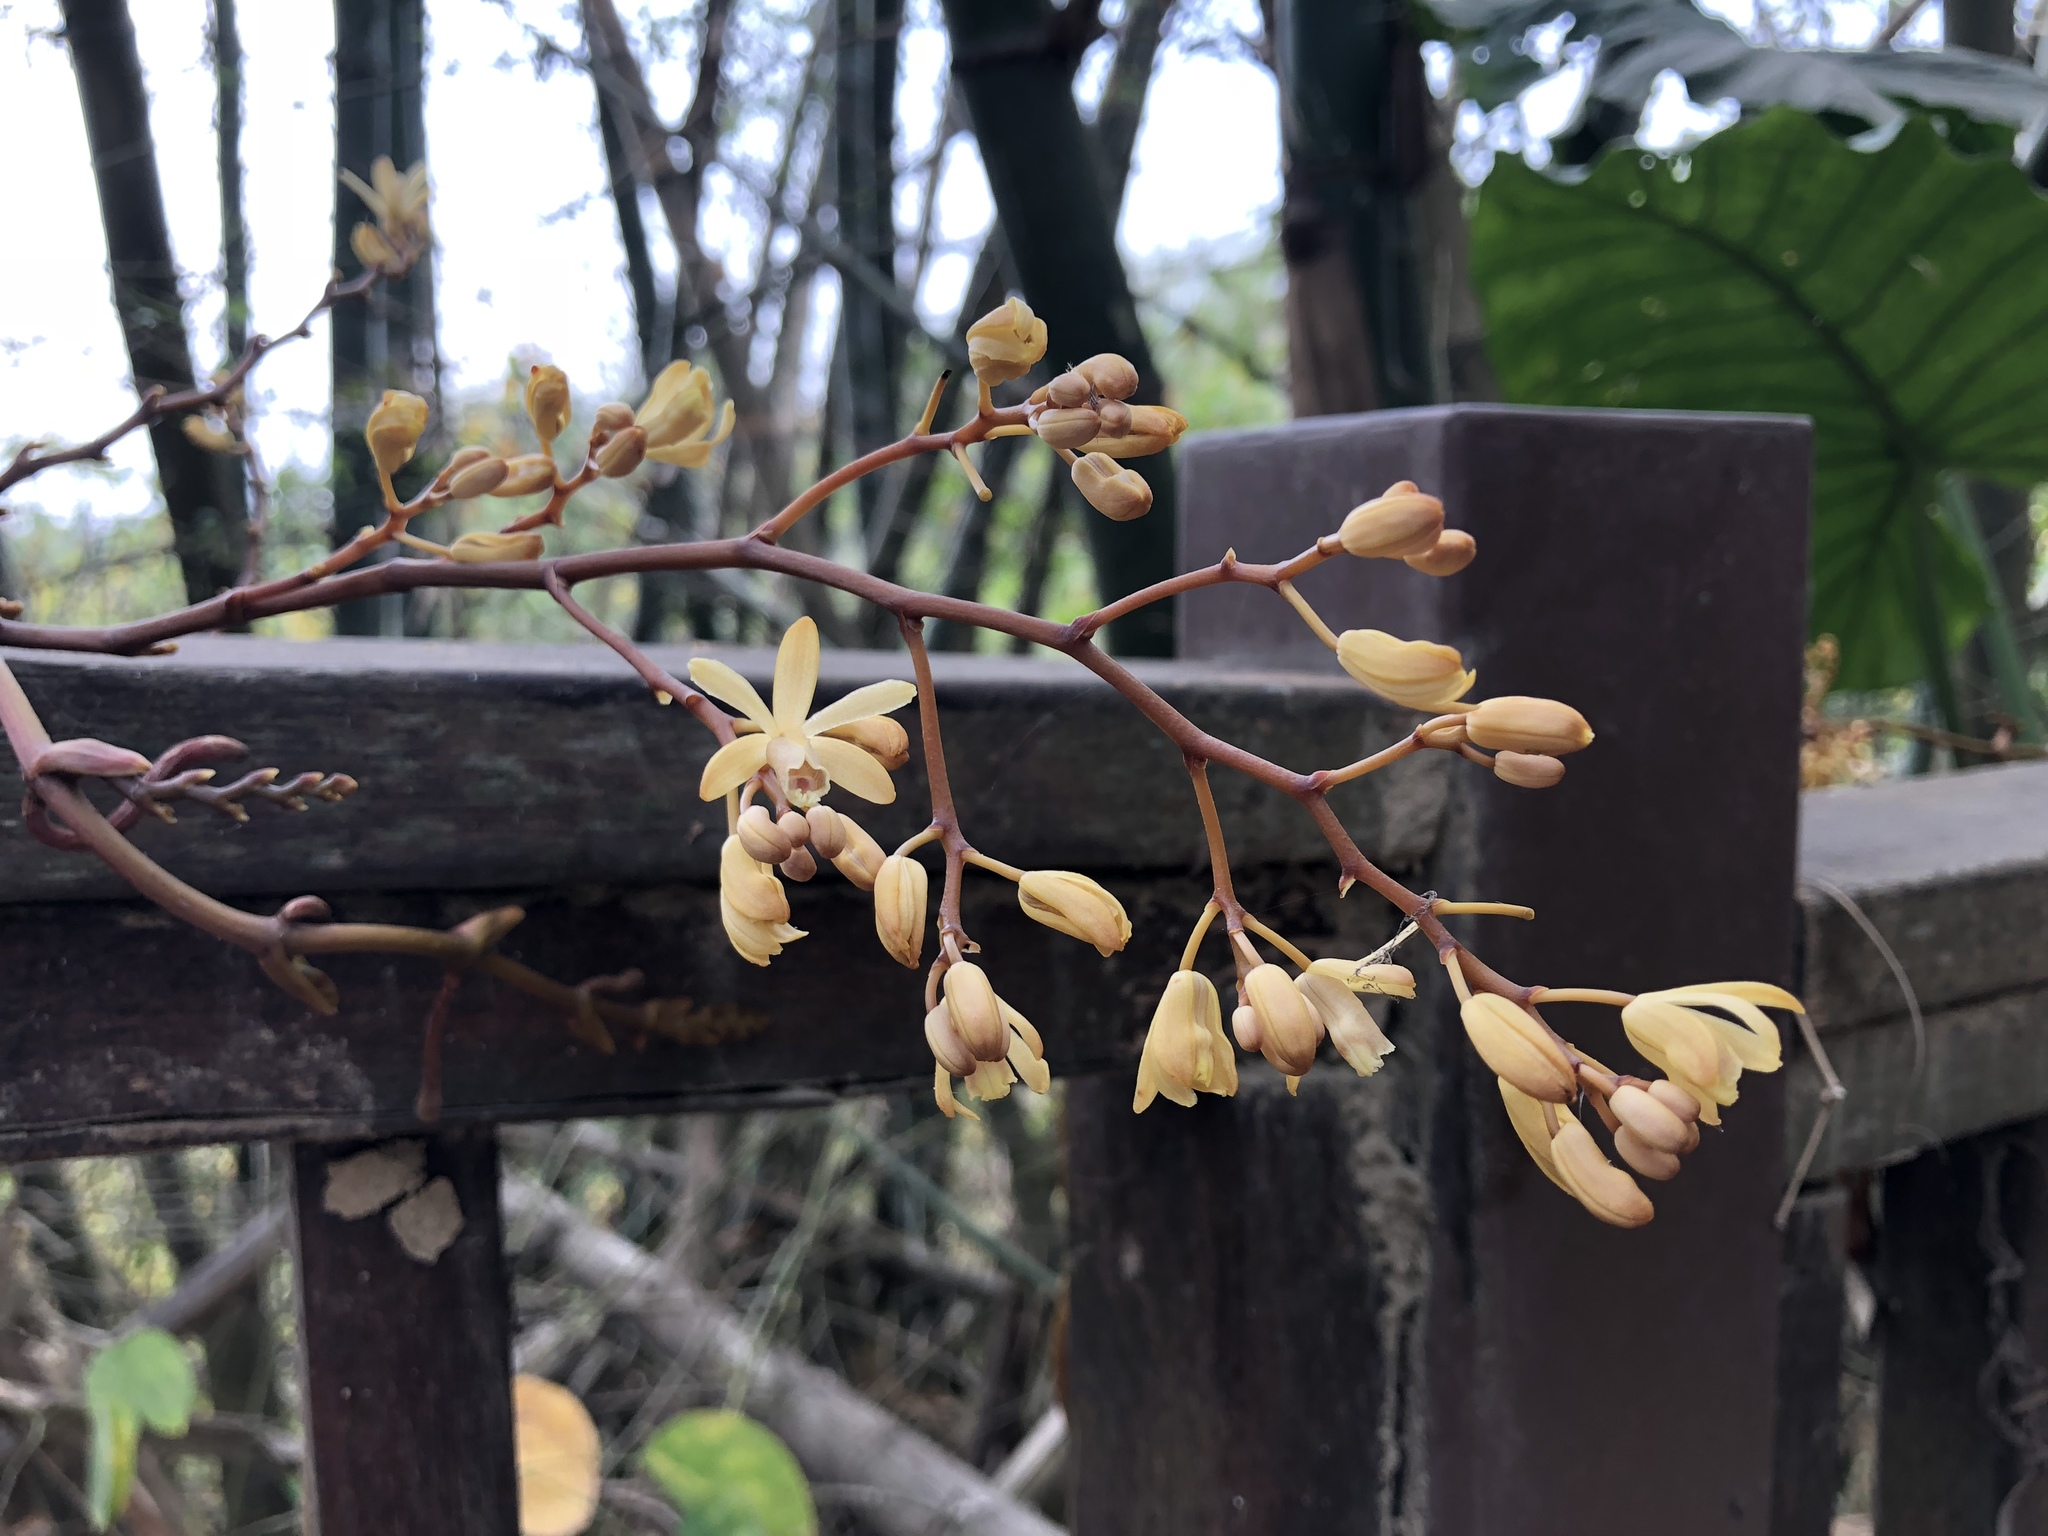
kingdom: Plantae
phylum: Tracheophyta
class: Liliopsida
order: Asparagales
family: Orchidaceae
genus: Erythrorchis
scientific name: Erythrorchis altissima
